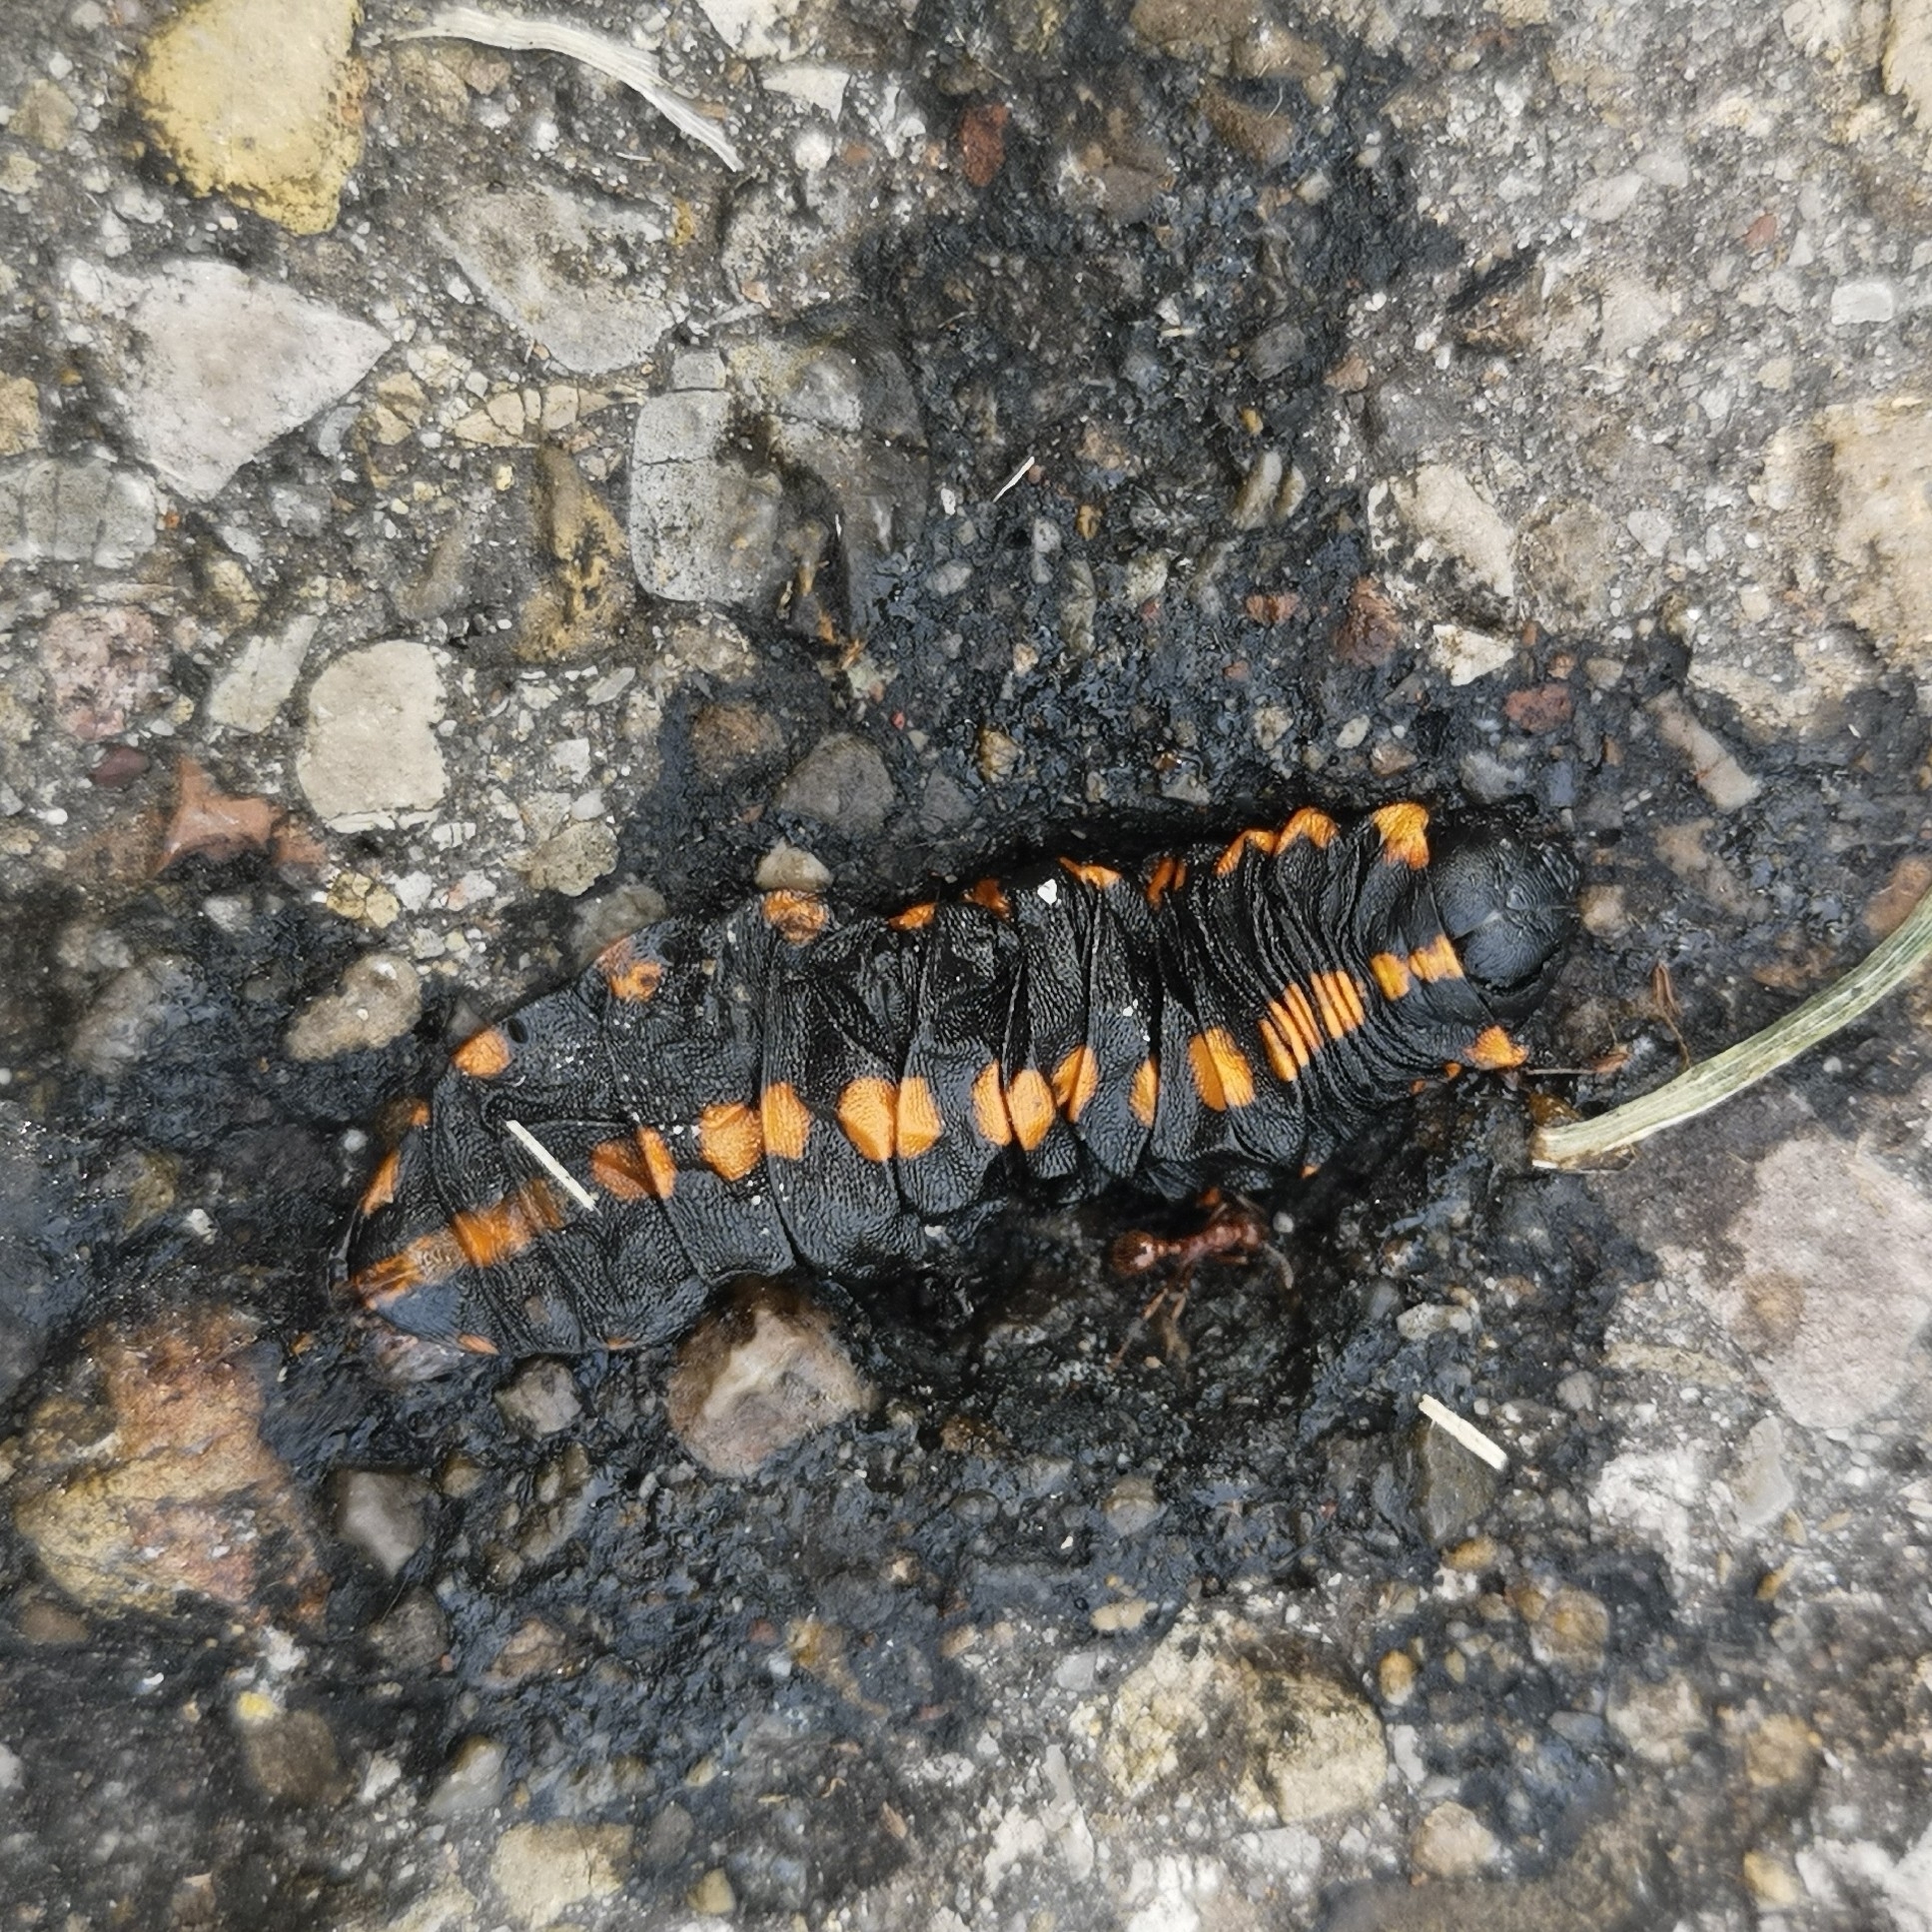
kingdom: Animalia
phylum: Arthropoda
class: Insecta
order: Lepidoptera
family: Noctuidae
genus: Cucullia
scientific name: Cucullia lucifuga
